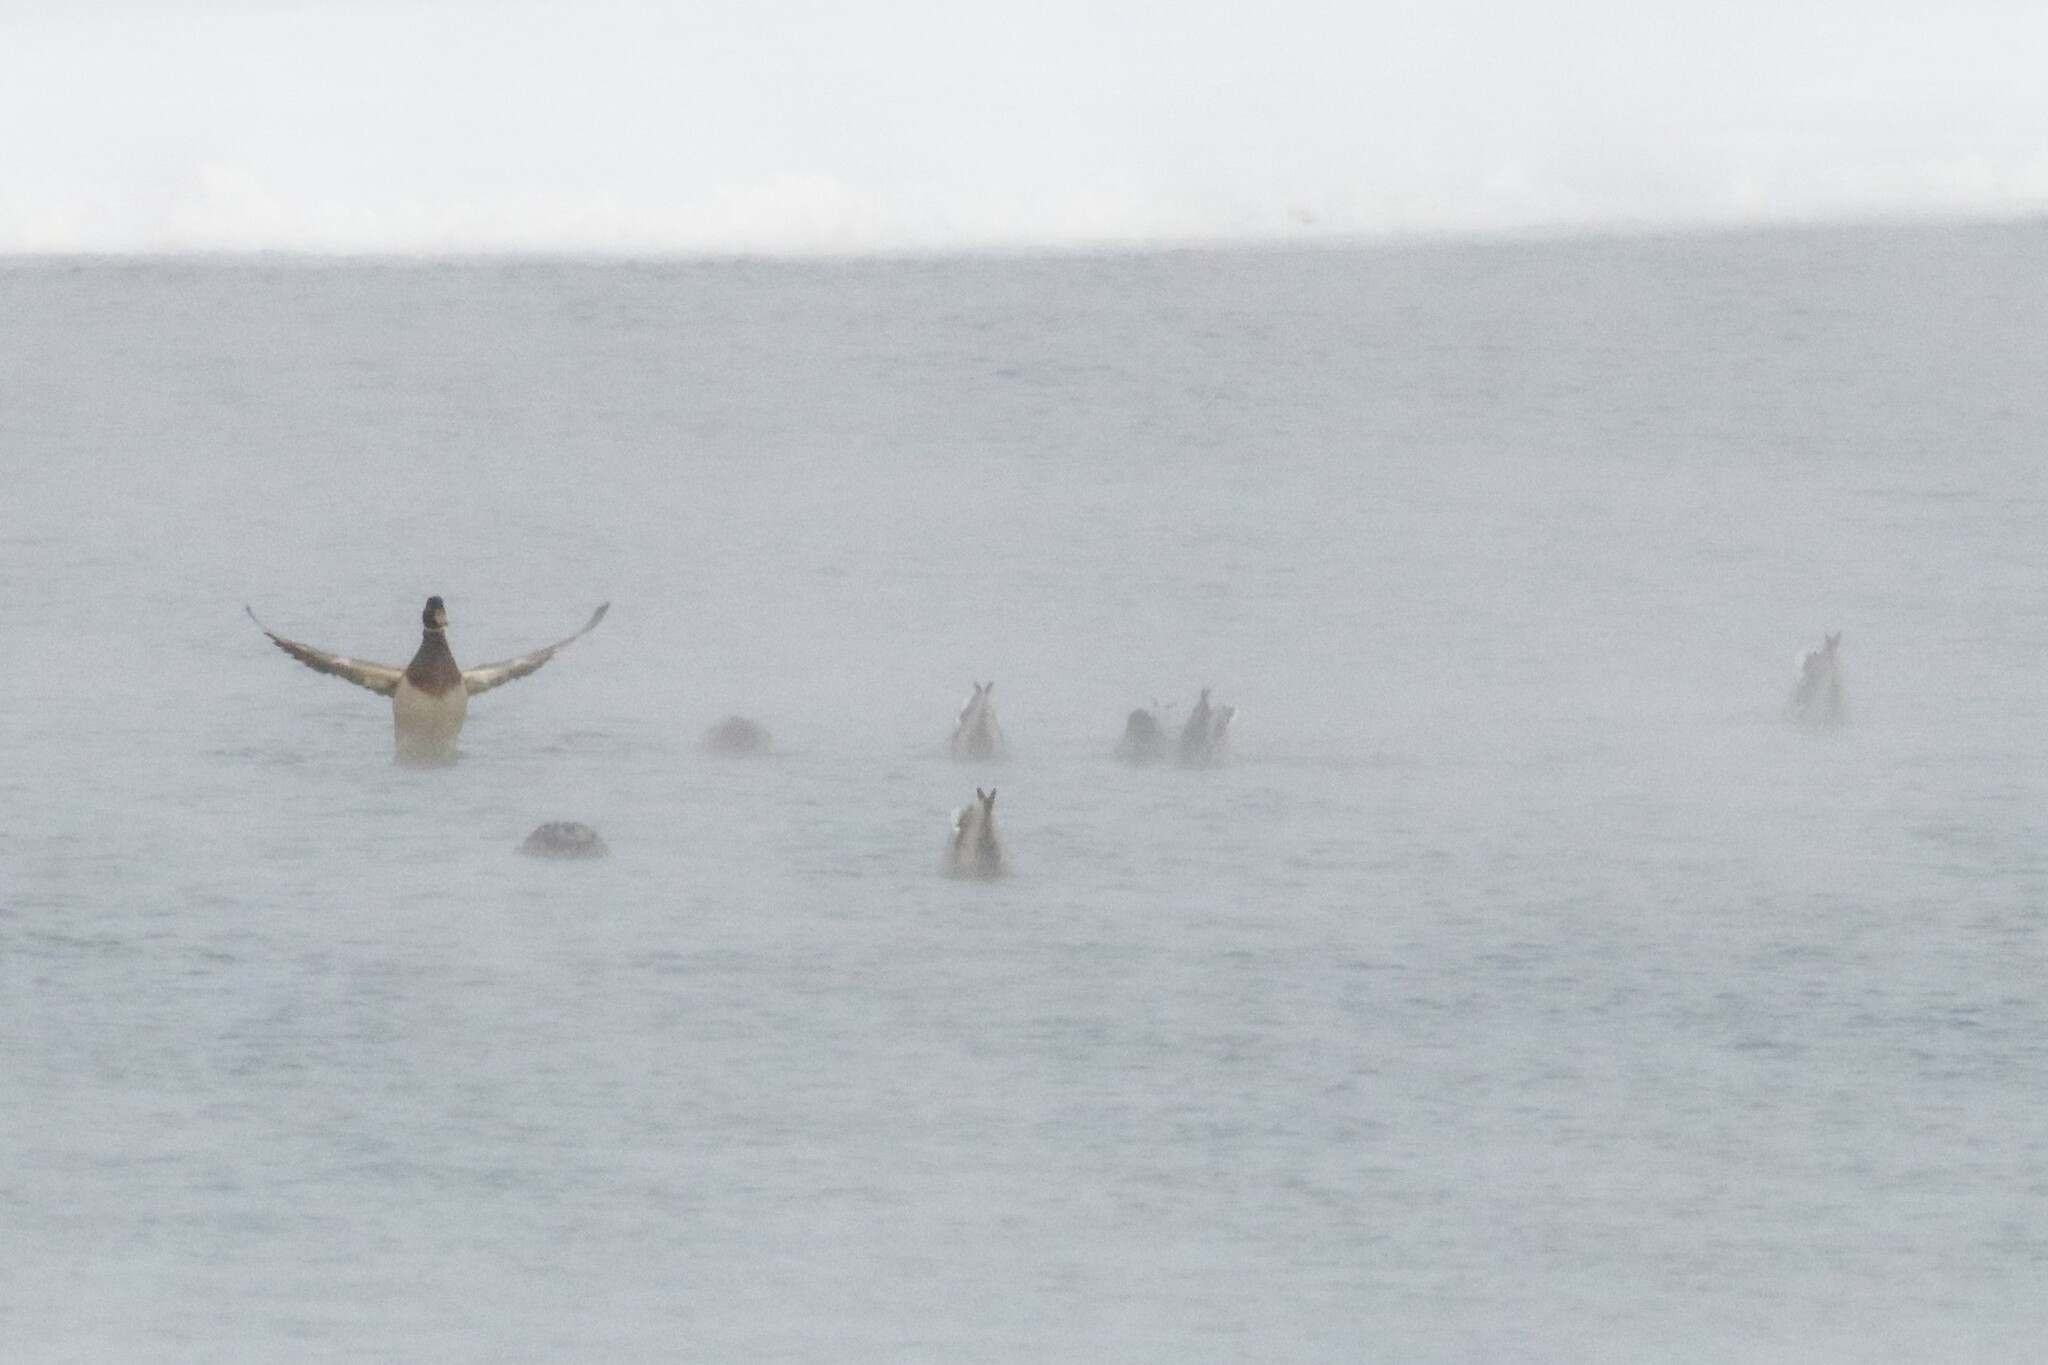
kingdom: Animalia
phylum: Chordata
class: Aves
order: Anseriformes
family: Anatidae
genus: Anas
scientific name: Anas platyrhynchos
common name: Mallard
